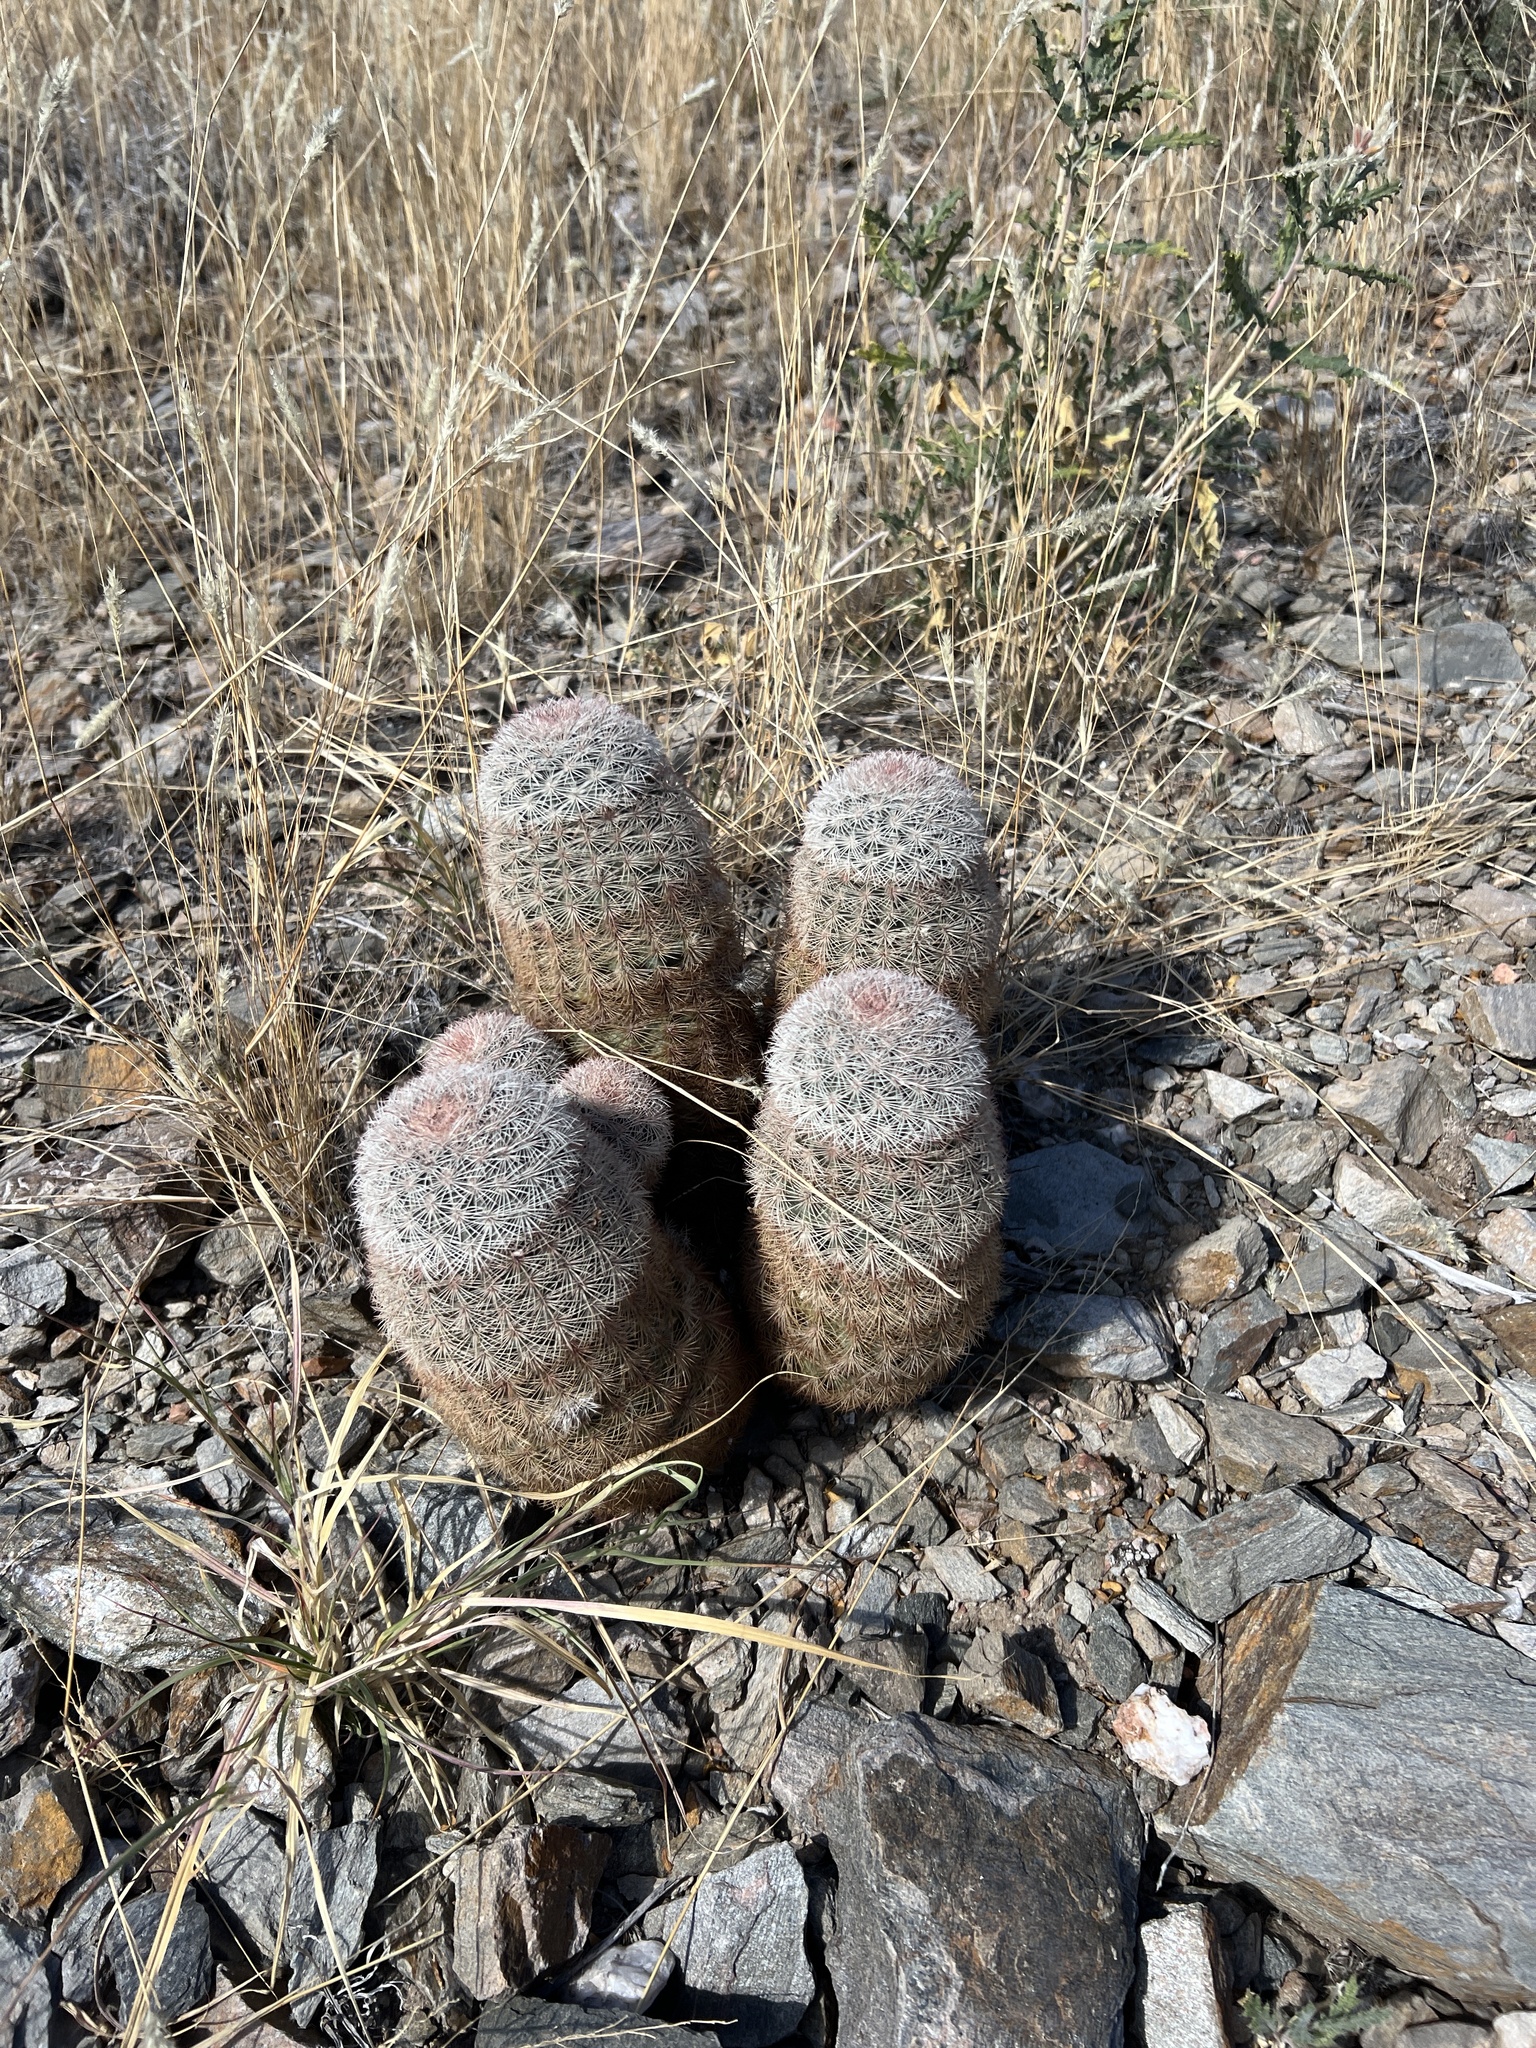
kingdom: Plantae
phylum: Tracheophyta
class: Magnoliopsida
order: Caryophyllales
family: Cactaceae
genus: Echinocereus
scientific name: Echinocereus dasyacanthus
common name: Spiny hedgehog cactus
